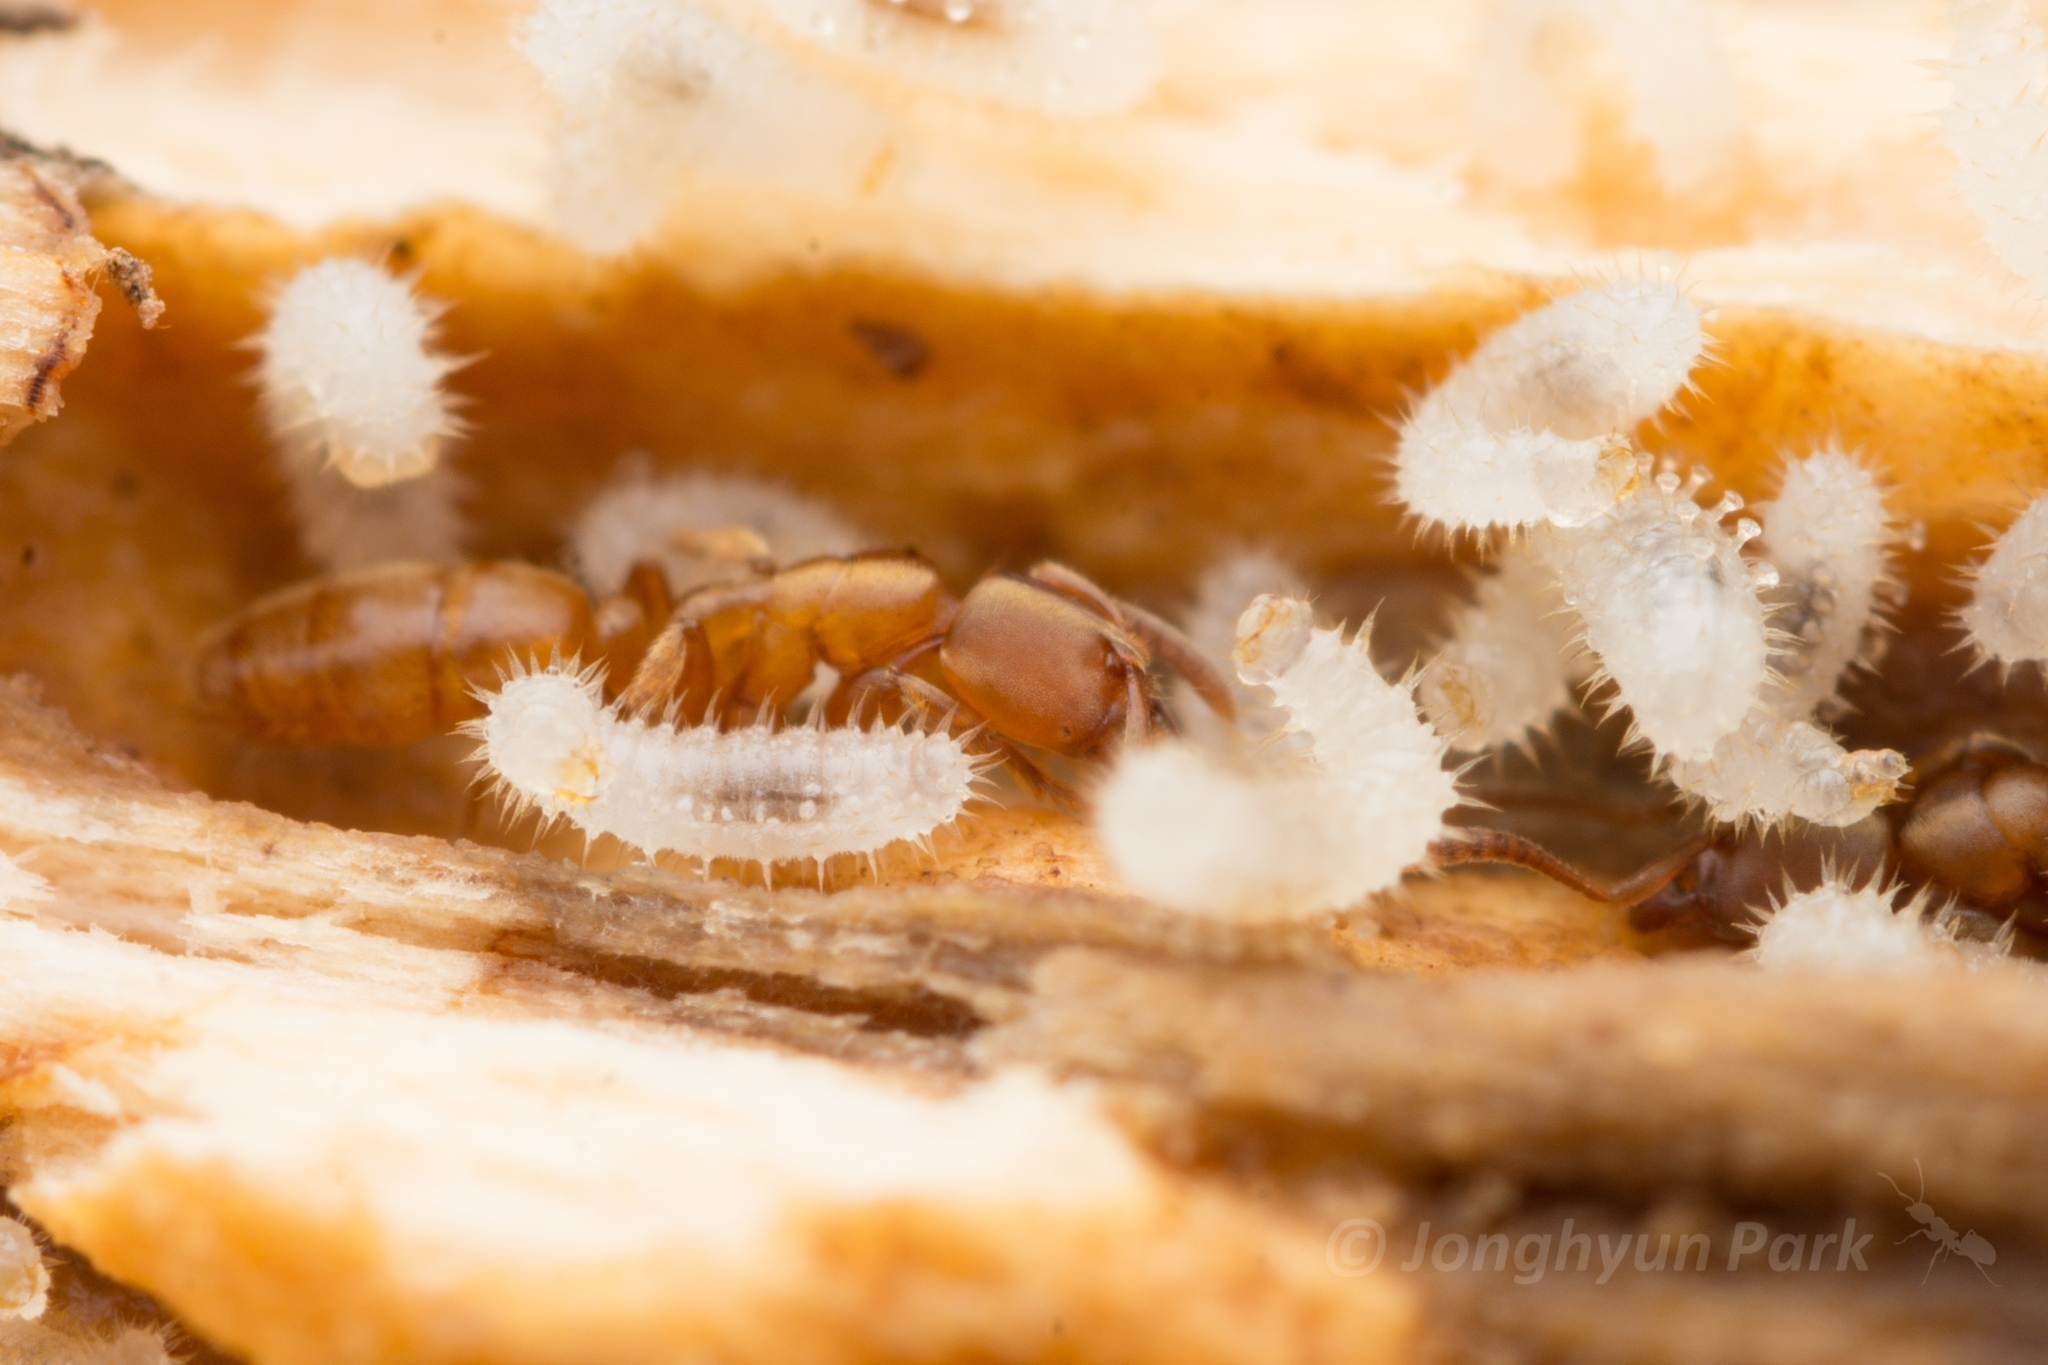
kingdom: Animalia
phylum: Arthropoda
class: Insecta
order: Hymenoptera
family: Formicidae
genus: Cryptopone
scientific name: Cryptopone sauteri
